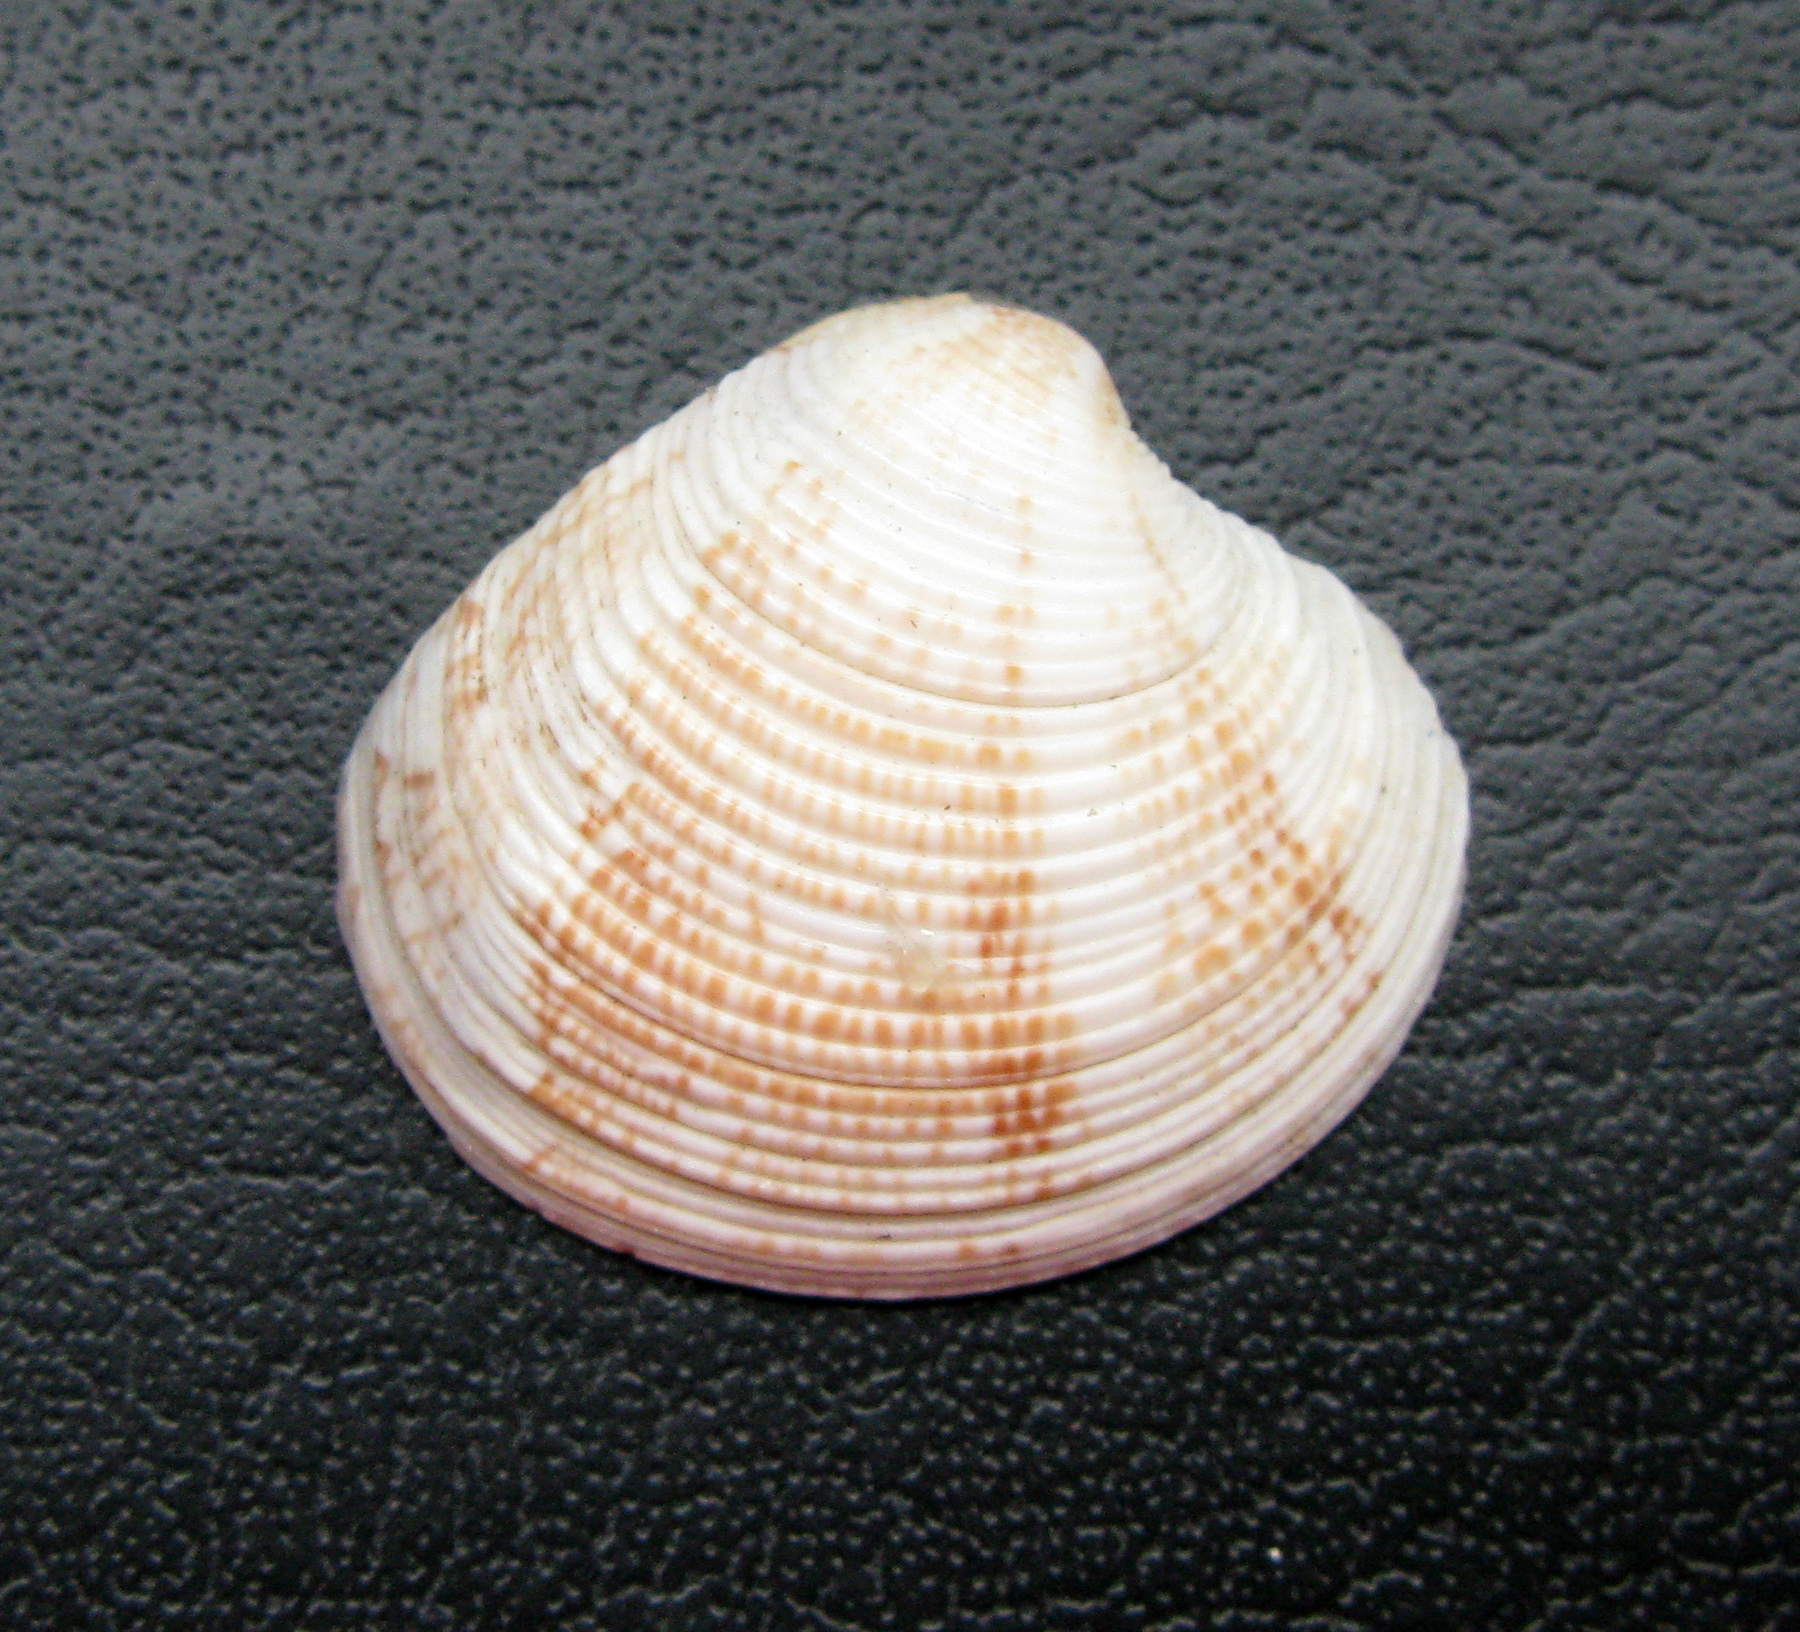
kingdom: Animalia
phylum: Mollusca
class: Bivalvia
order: Venerida
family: Veneridae
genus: Chamelea
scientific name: Chamelea gallina
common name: Chicken venus
